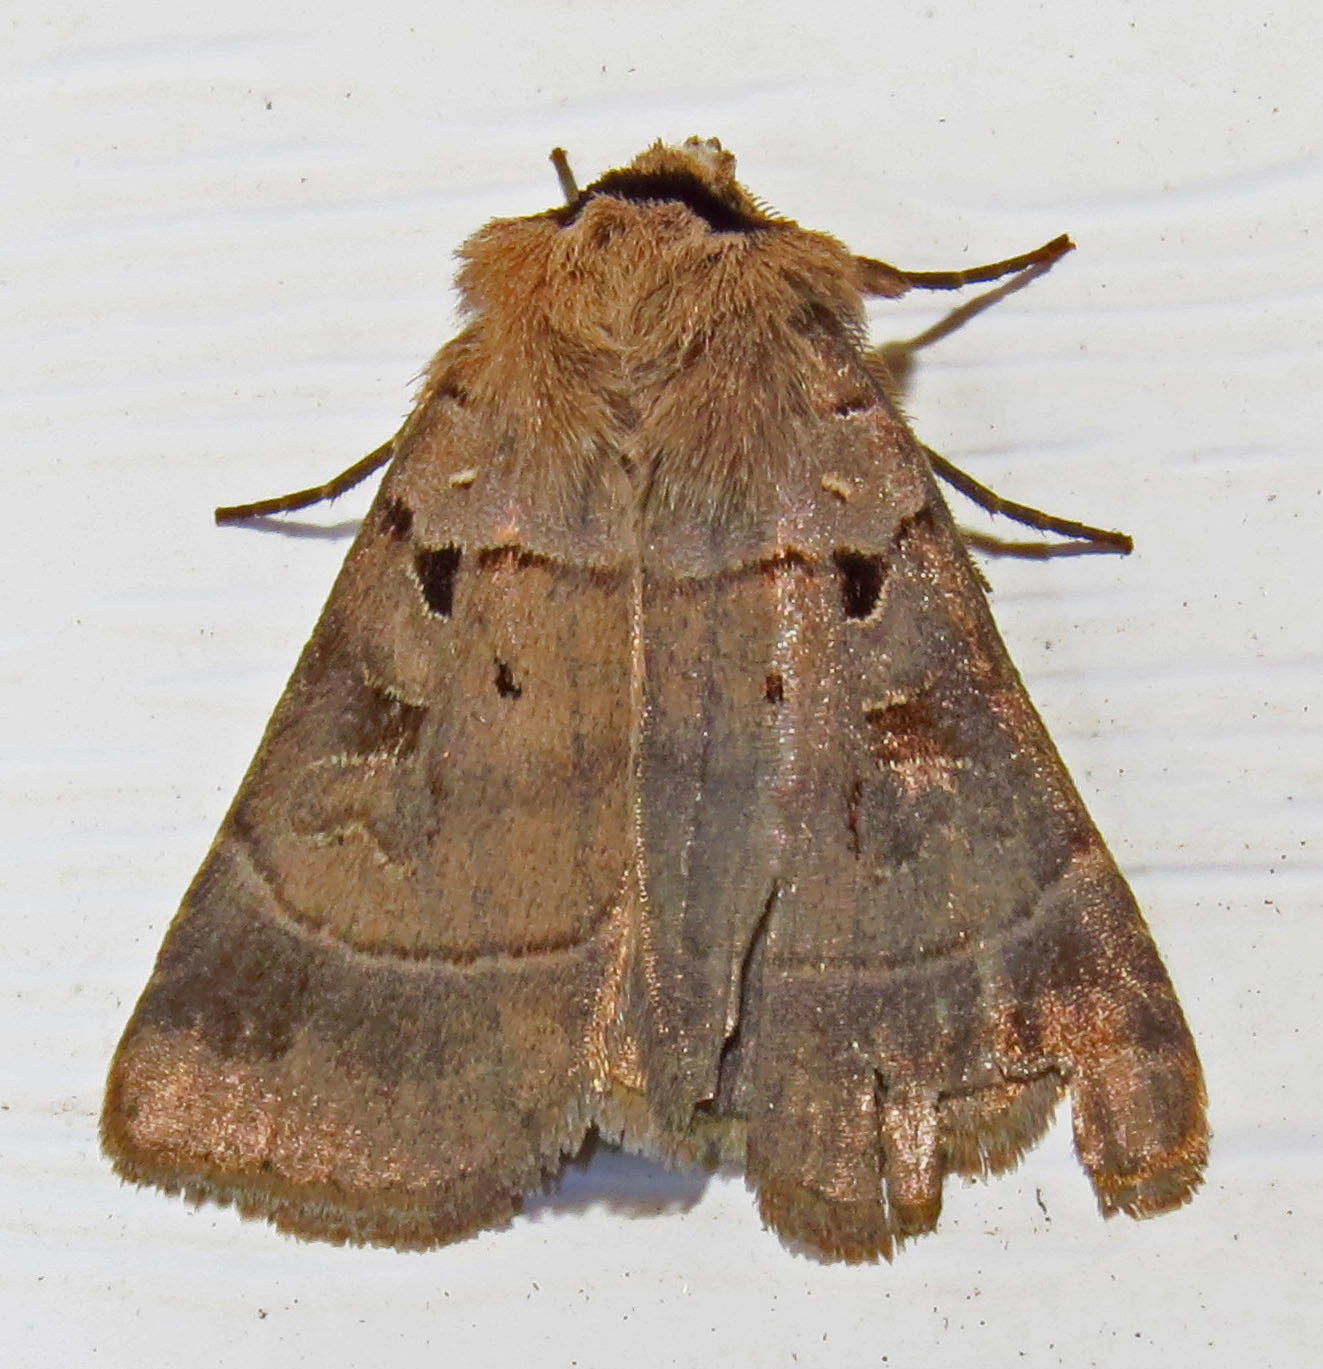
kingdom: Animalia
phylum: Arthropoda
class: Insecta
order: Lepidoptera
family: Noctuidae
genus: Agnorisma
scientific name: Agnorisma badinodis
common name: Pale-banded dart
